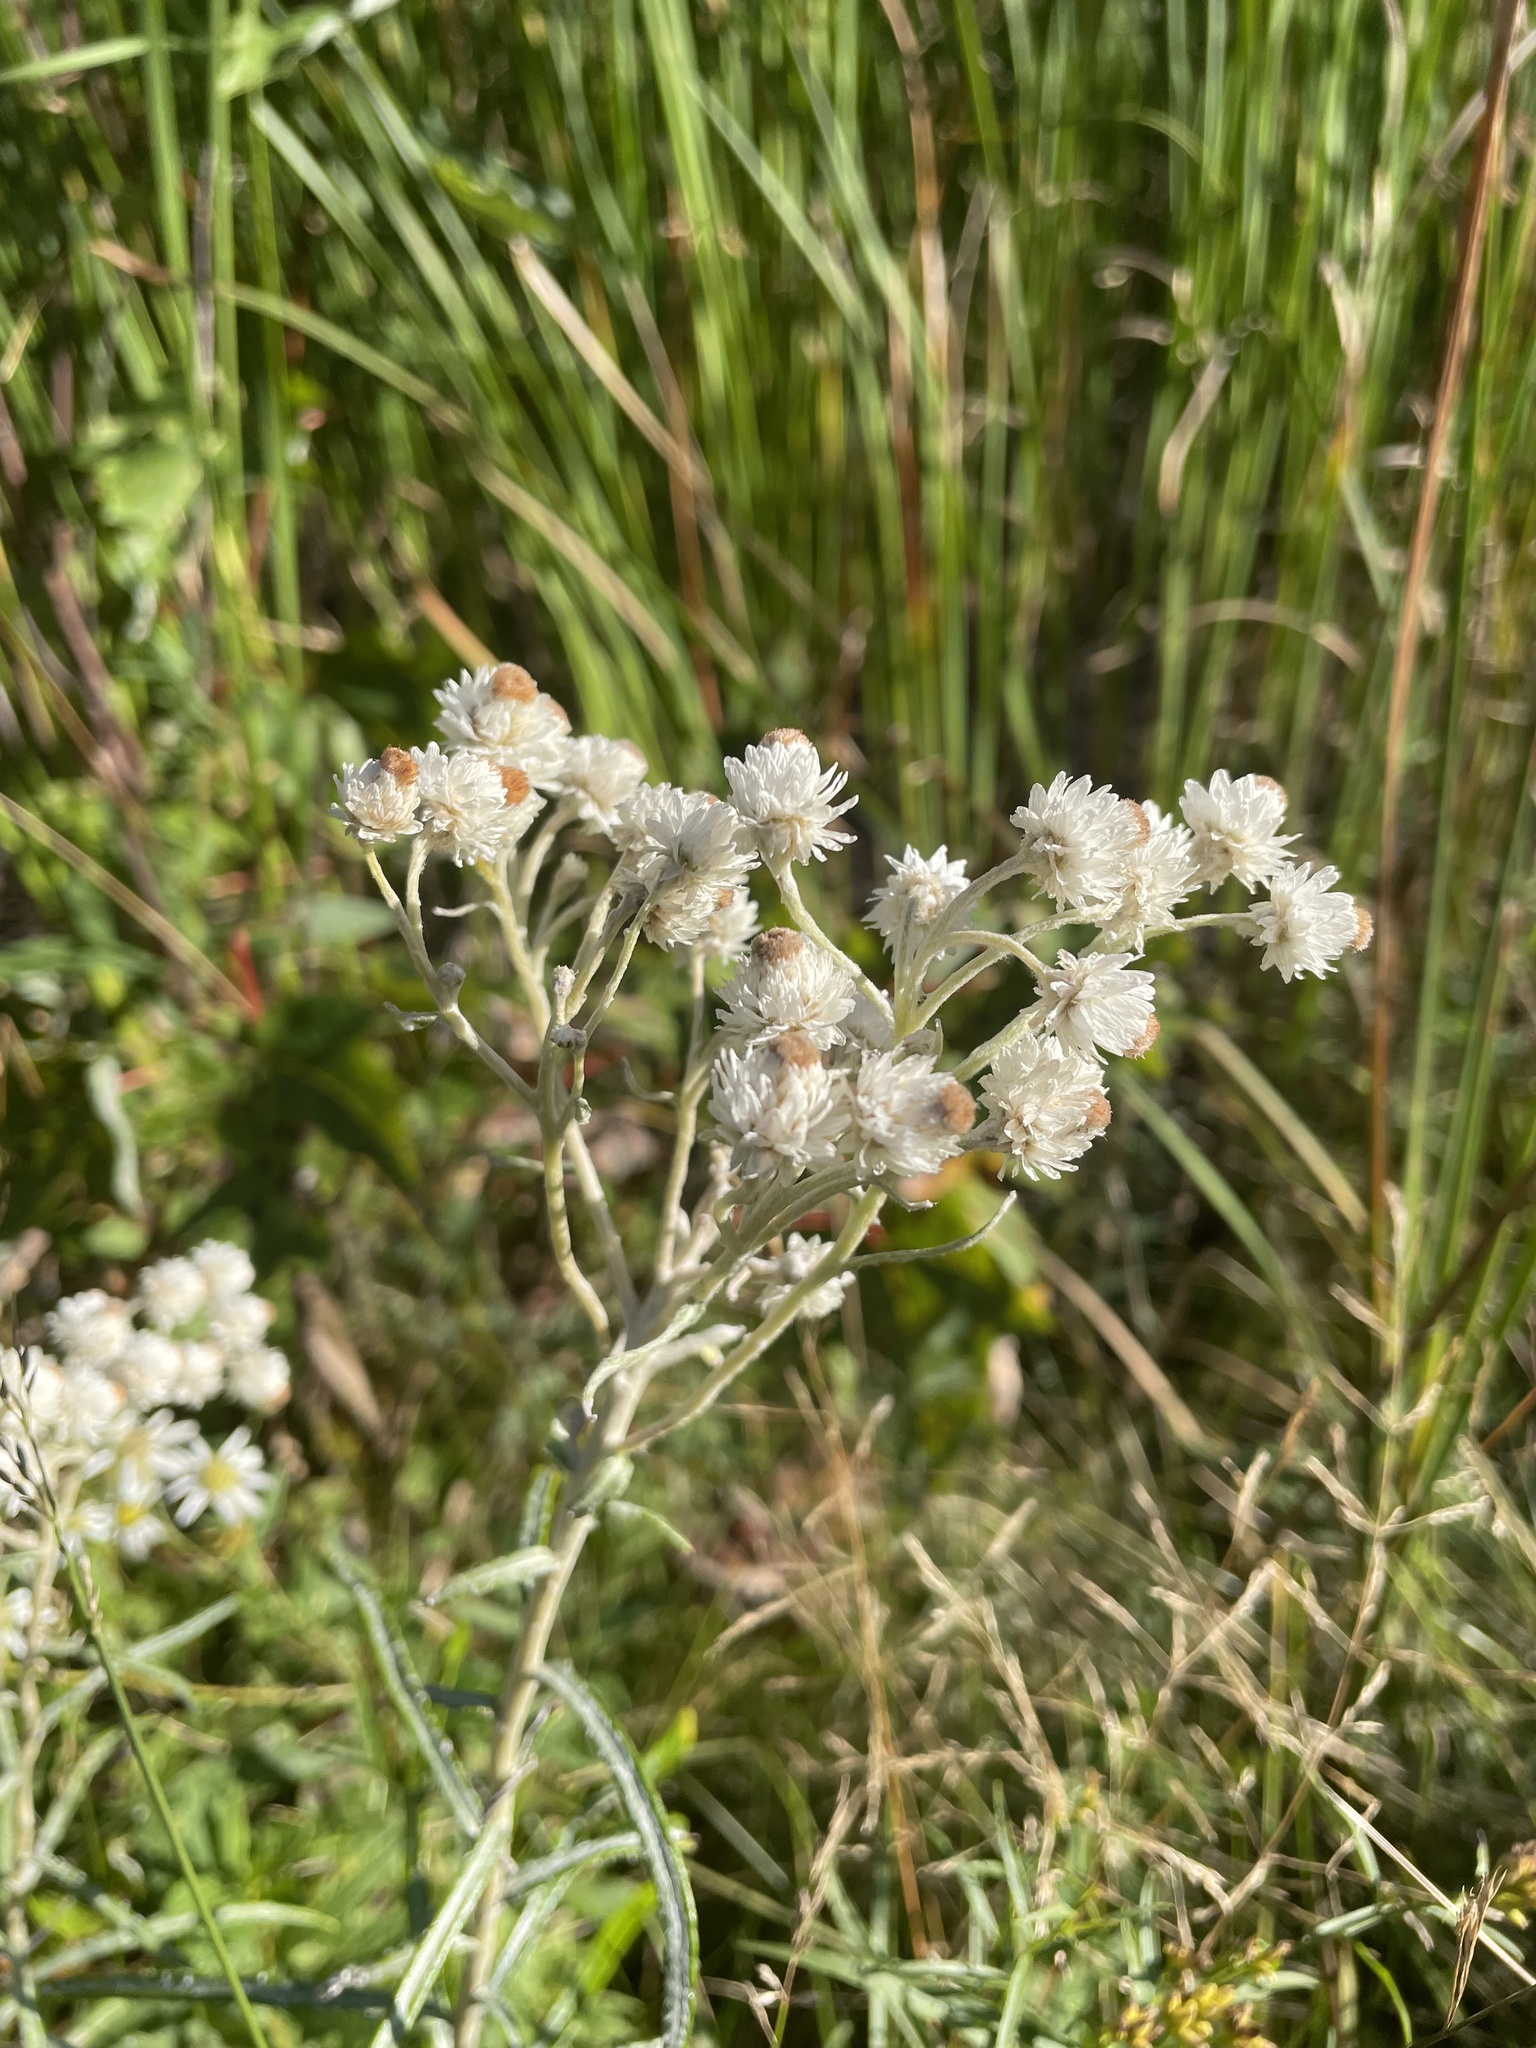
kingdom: Plantae
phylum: Tracheophyta
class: Magnoliopsida
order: Asterales
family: Asteraceae
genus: Anaphalis
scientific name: Anaphalis margaritacea
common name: Pearly everlasting
